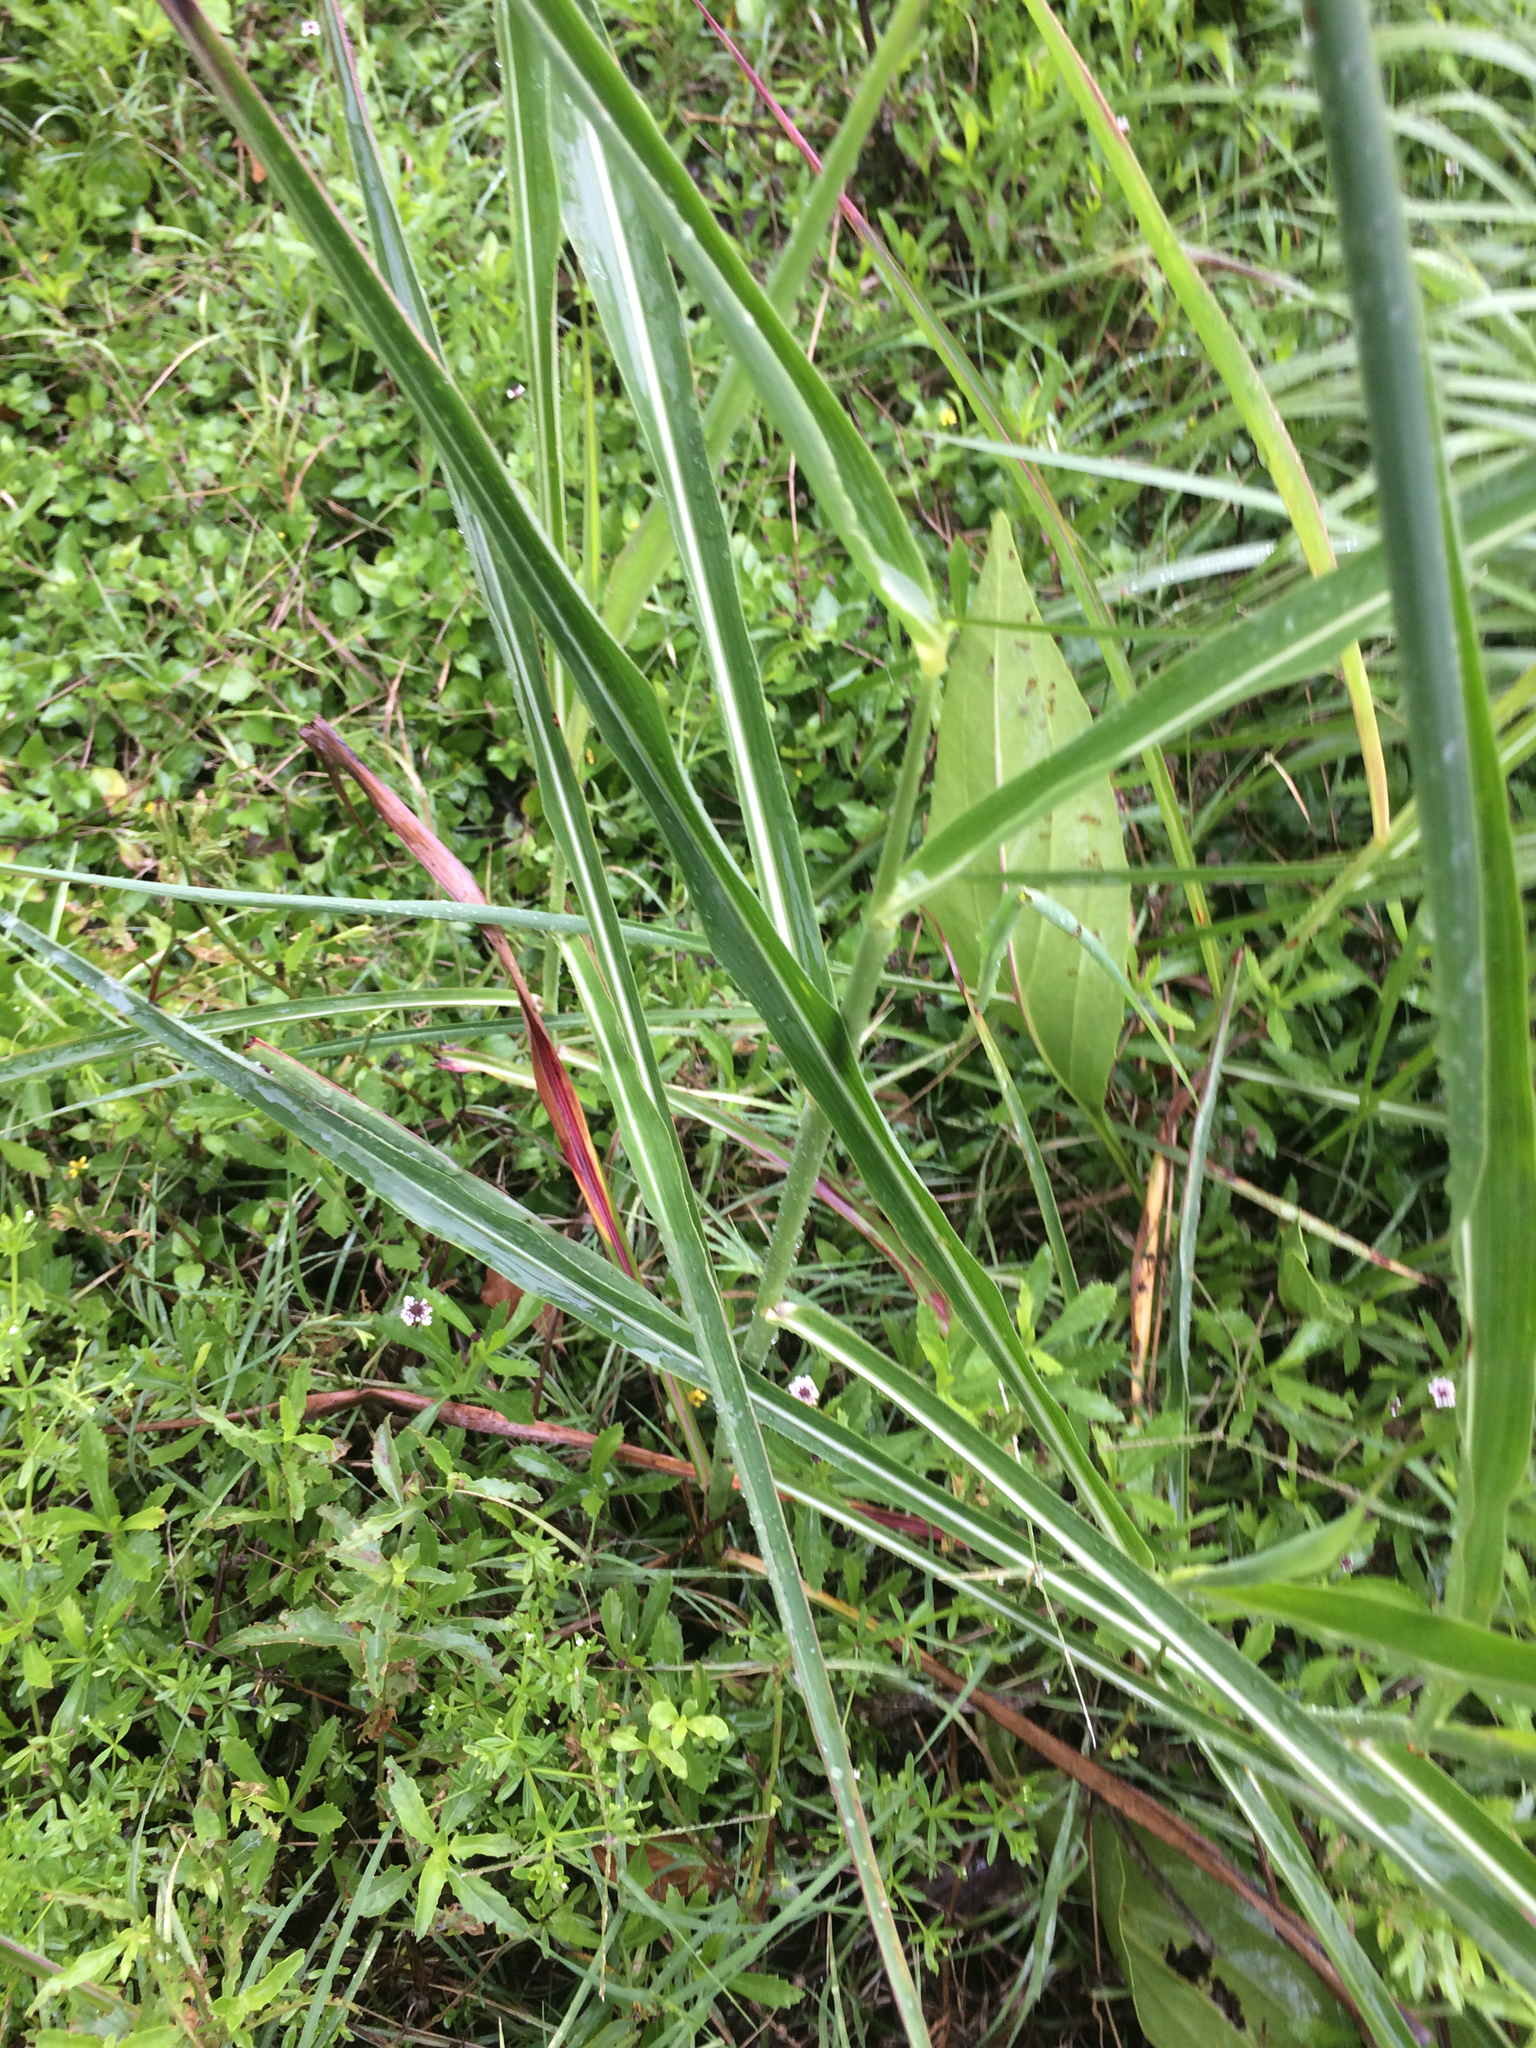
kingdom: Plantae
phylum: Tracheophyta
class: Liliopsida
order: Poales
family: Poaceae
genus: Sorghum
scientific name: Sorghum halepense
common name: Johnson-grass
